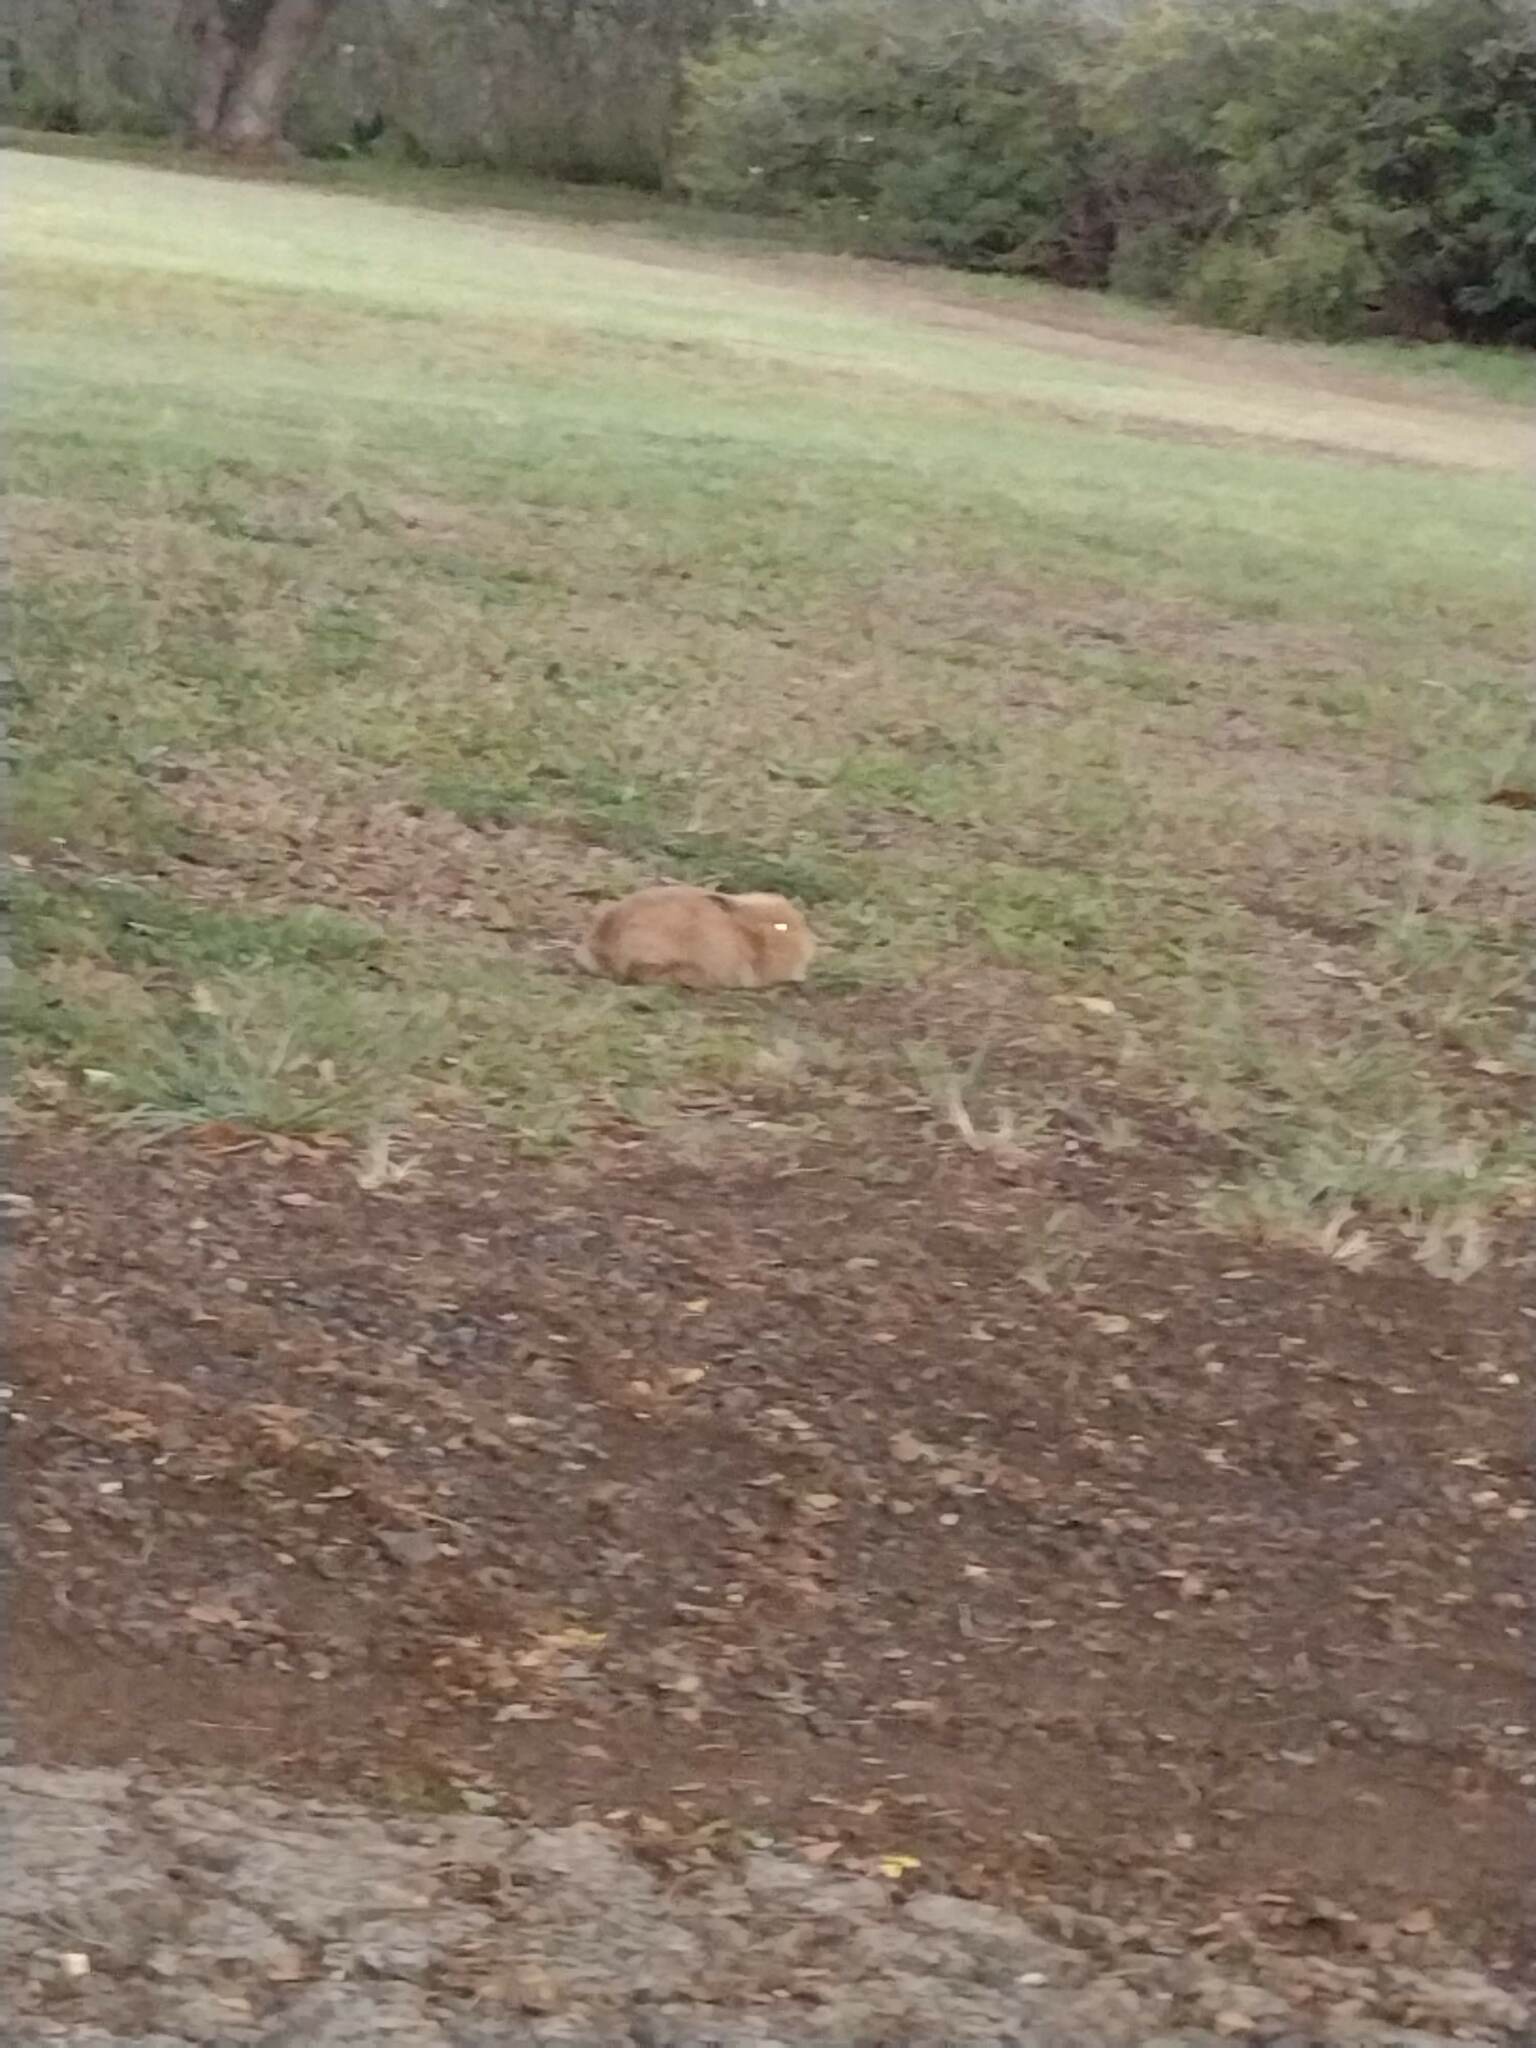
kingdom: Animalia
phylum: Chordata
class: Mammalia
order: Lagomorpha
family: Leporidae
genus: Oryctolagus
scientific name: Oryctolagus cuniculus
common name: European rabbit
